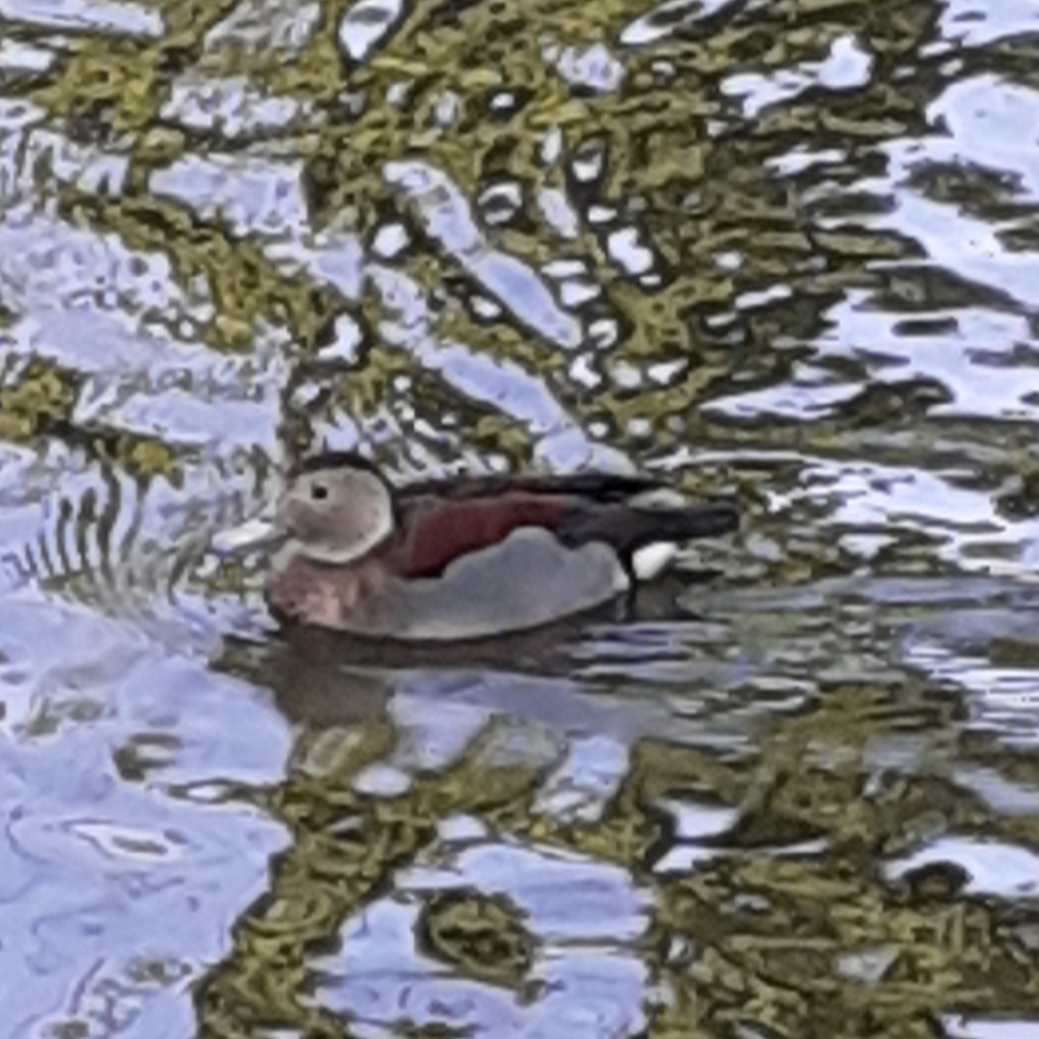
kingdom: Animalia
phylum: Chordata
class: Aves
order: Anseriformes
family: Anatidae
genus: Callonetta
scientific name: Callonetta leucophrys
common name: Ringed teal
